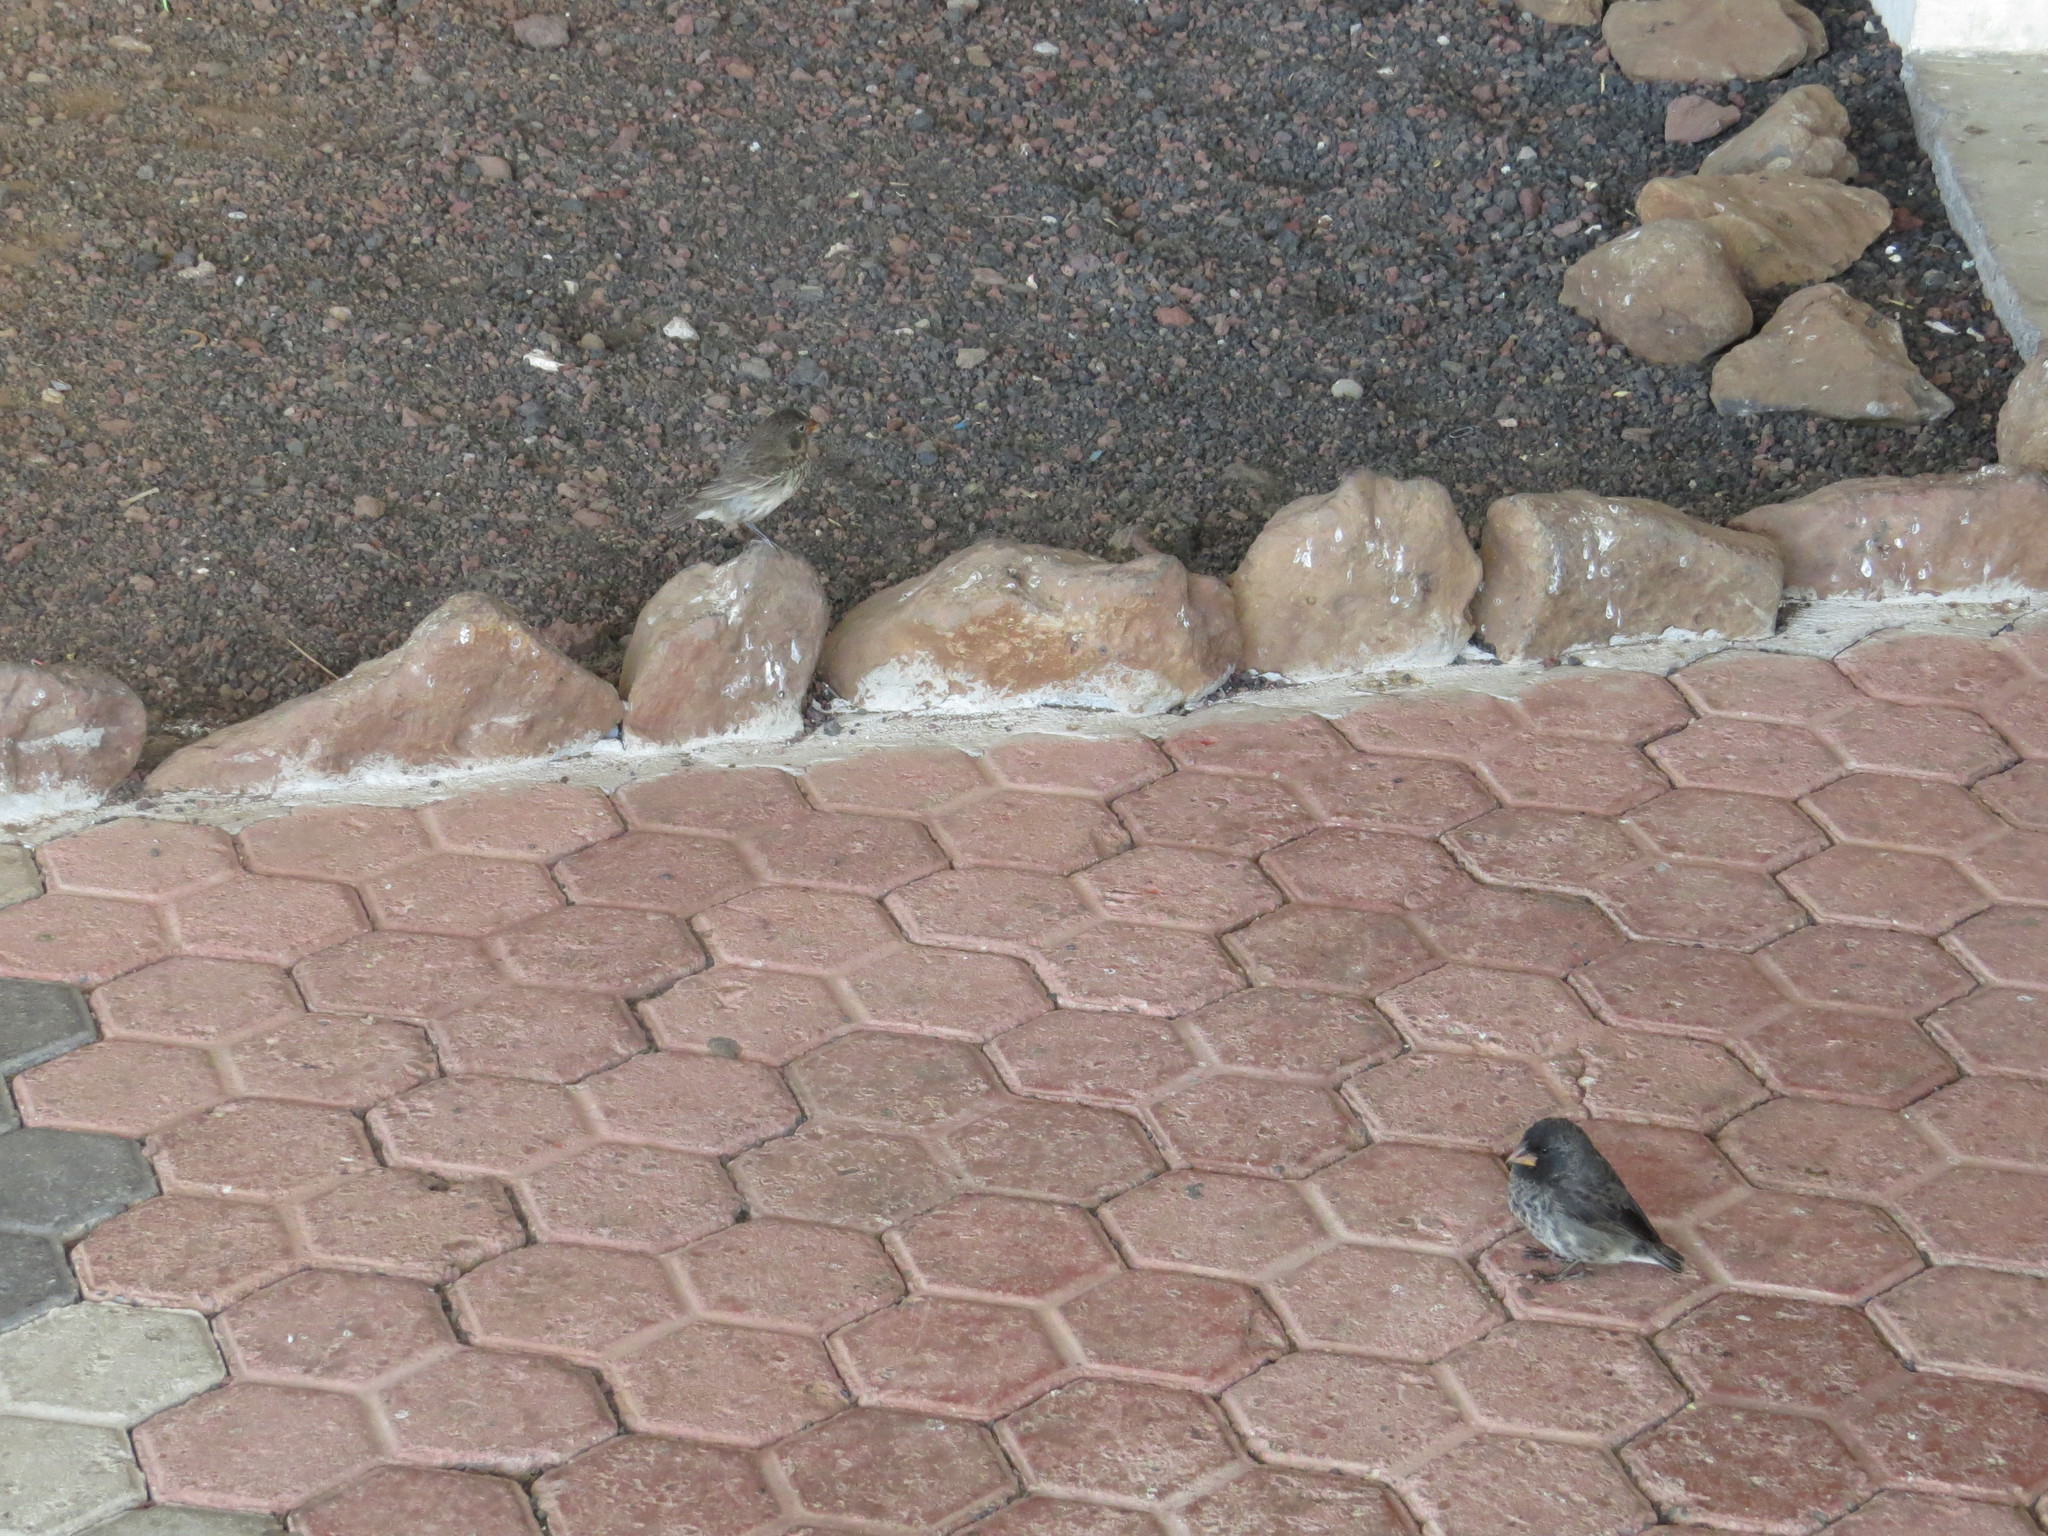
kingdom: Animalia
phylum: Chordata
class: Aves
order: Passeriformes
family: Thraupidae
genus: Geospiza
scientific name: Geospiza fortis
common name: Medium ground finch
